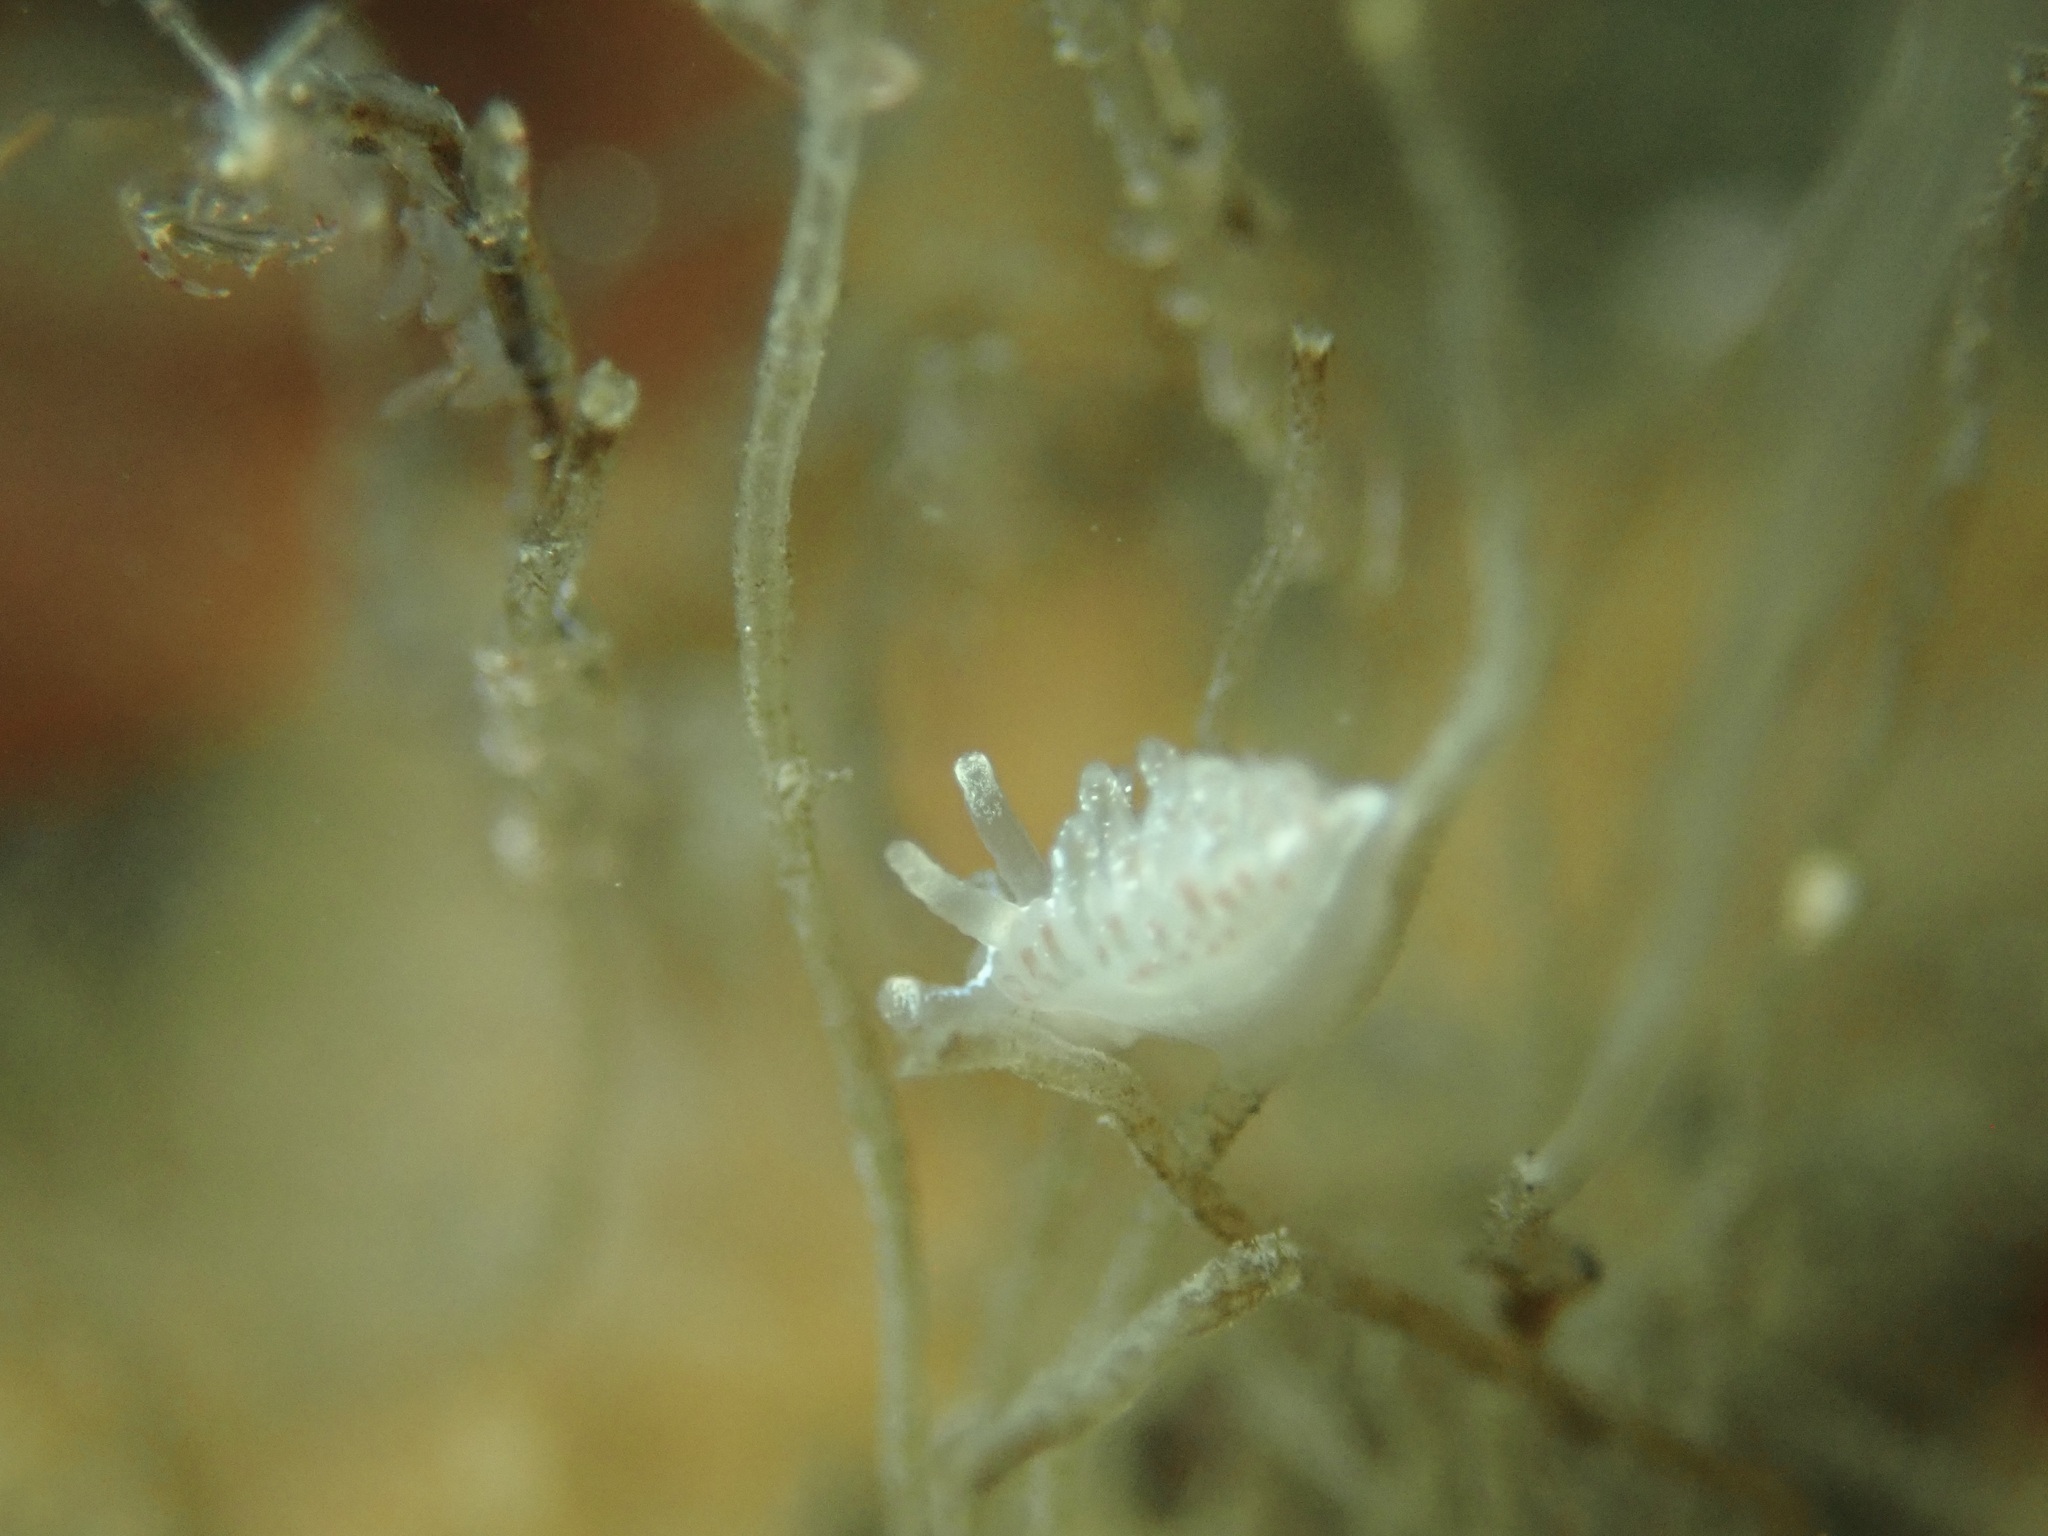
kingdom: Animalia
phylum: Mollusca
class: Gastropoda
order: Nudibranchia
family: Coryphellidae
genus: Coryphella
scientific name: Coryphella trilineata
